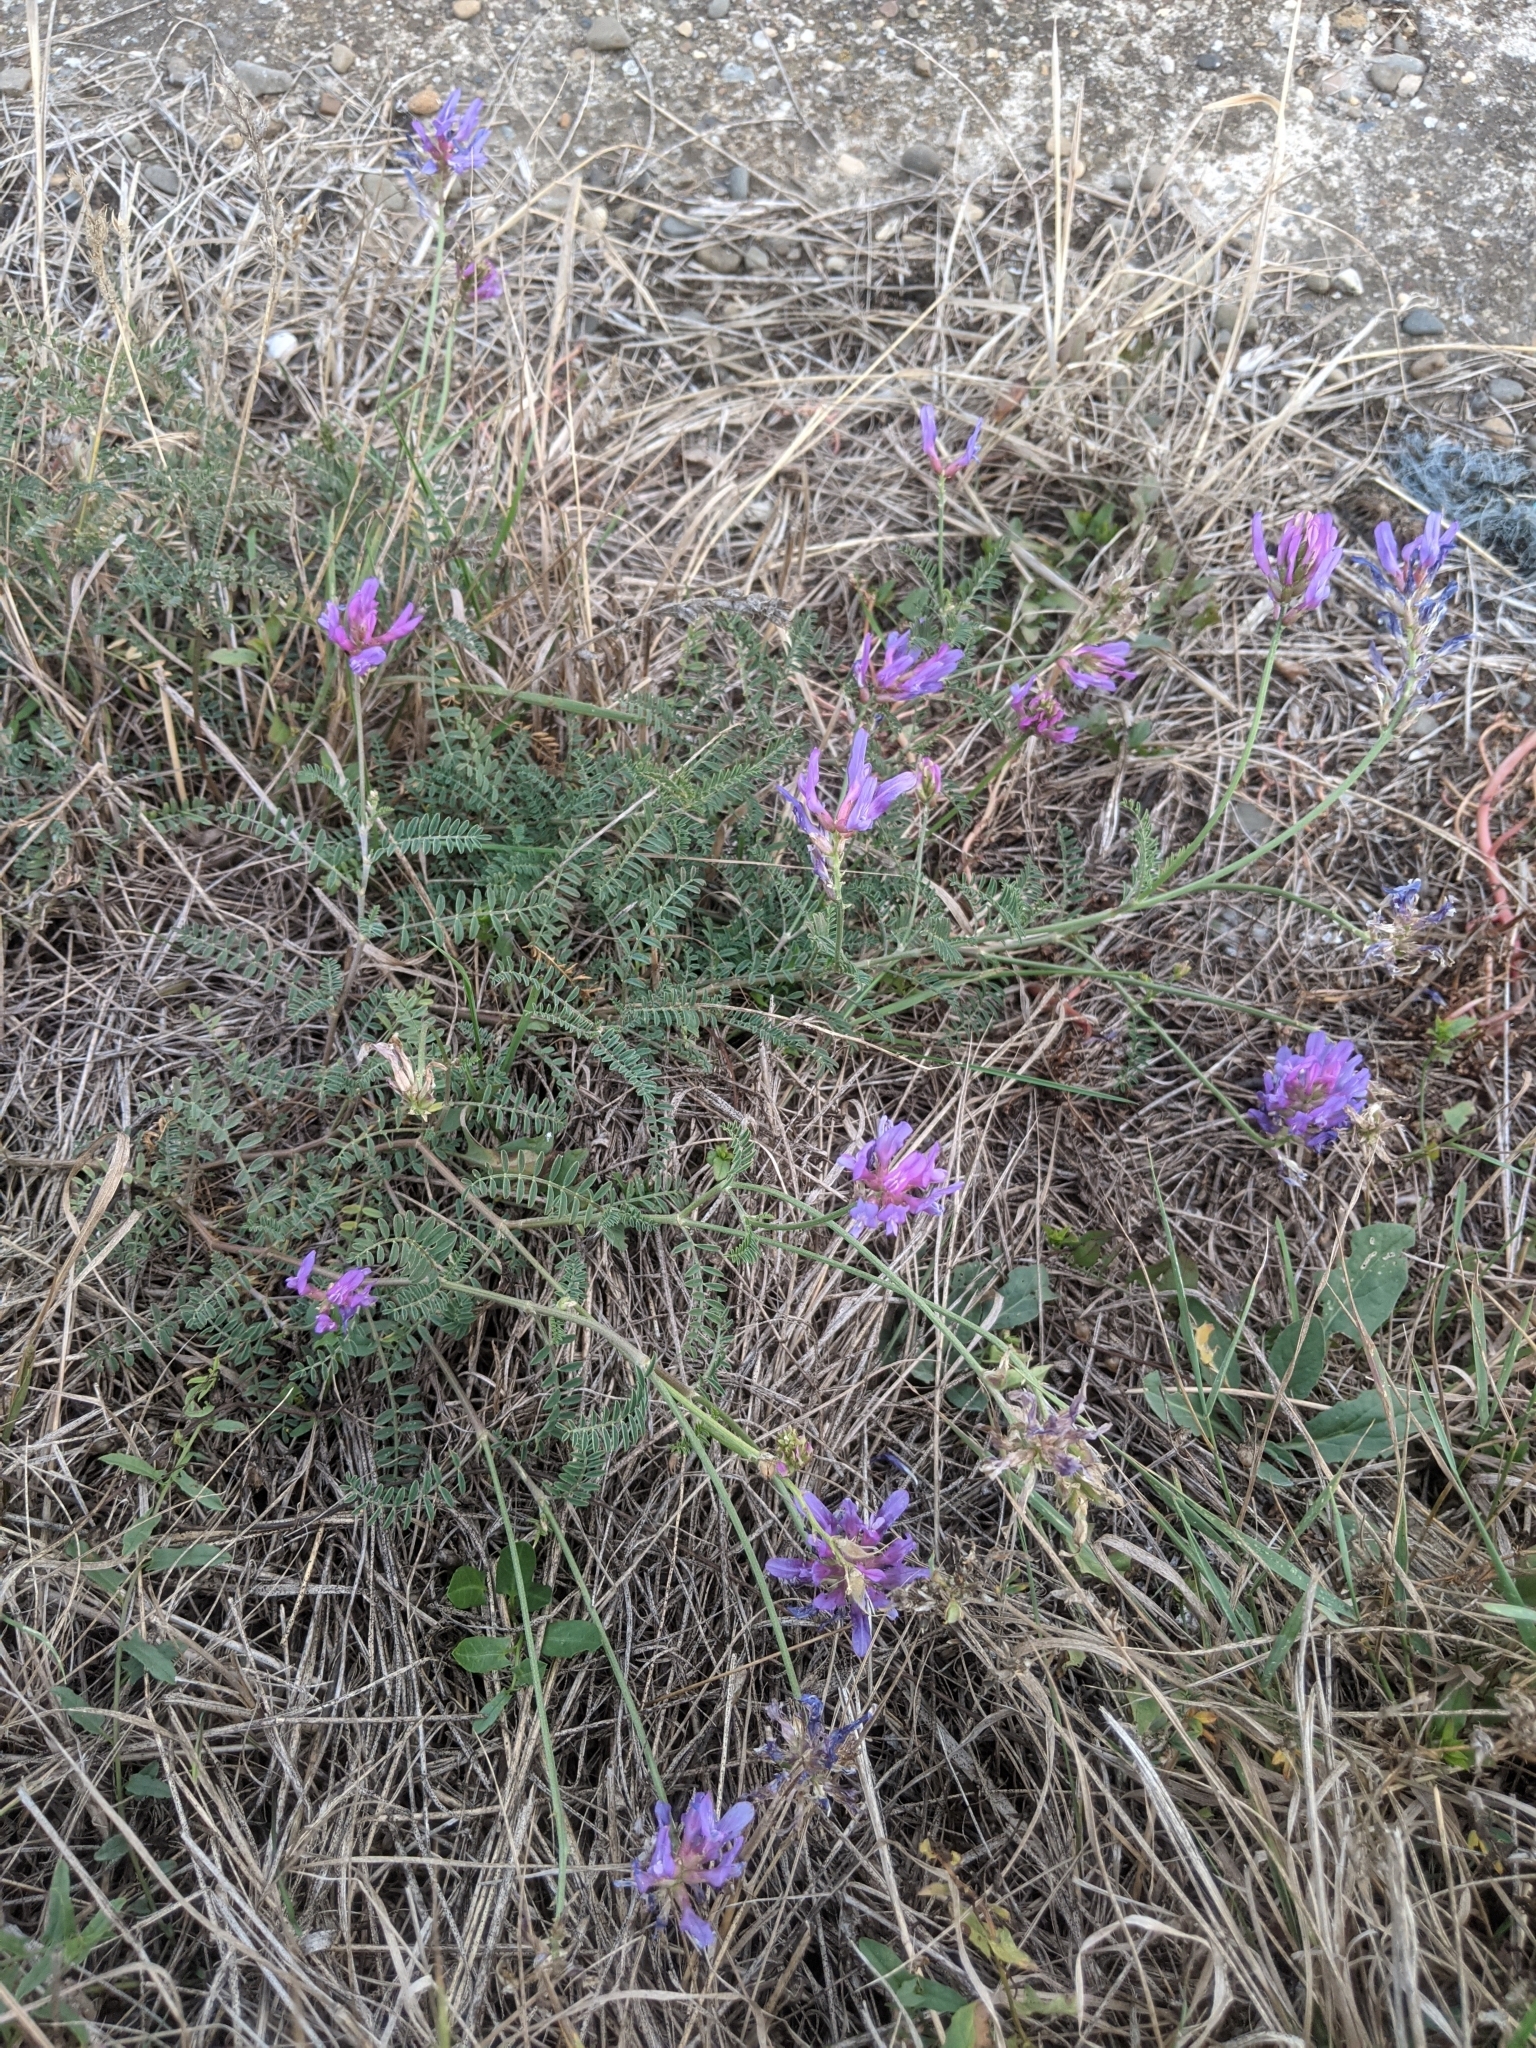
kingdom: Plantae
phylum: Tracheophyta
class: Magnoliopsida
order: Fabales
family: Fabaceae
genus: Astragalus
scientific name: Astragalus onobrychis
